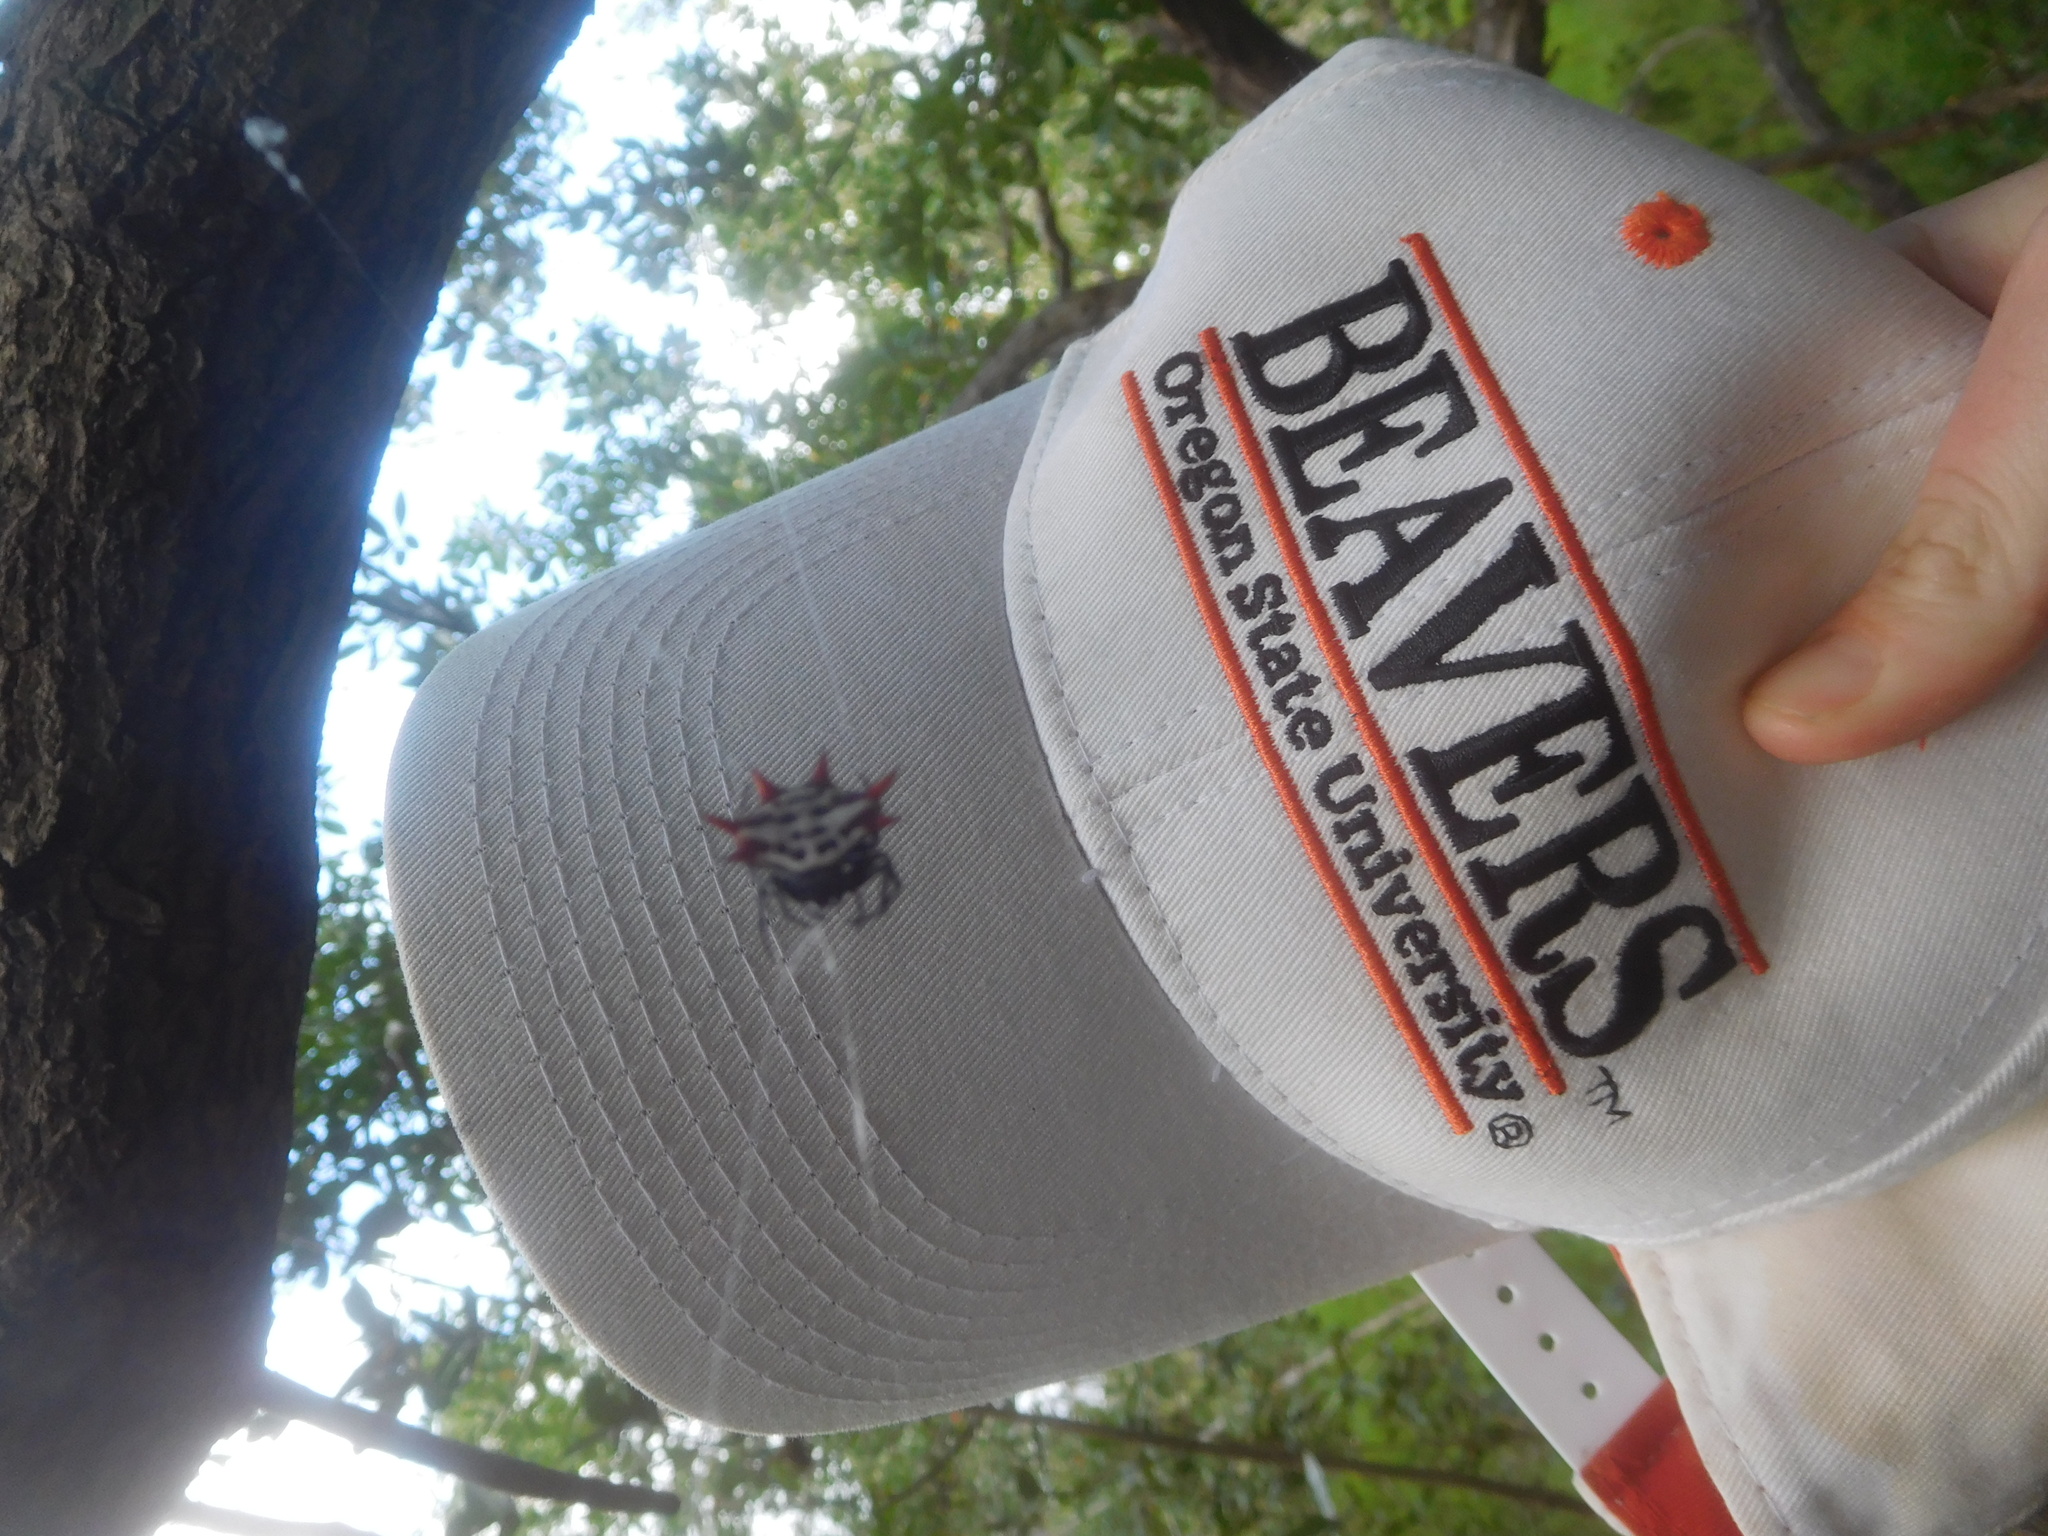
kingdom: Animalia
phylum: Arthropoda
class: Arachnida
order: Araneae
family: Araneidae
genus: Gasteracantha
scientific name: Gasteracantha cancriformis
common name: Orb weavers
